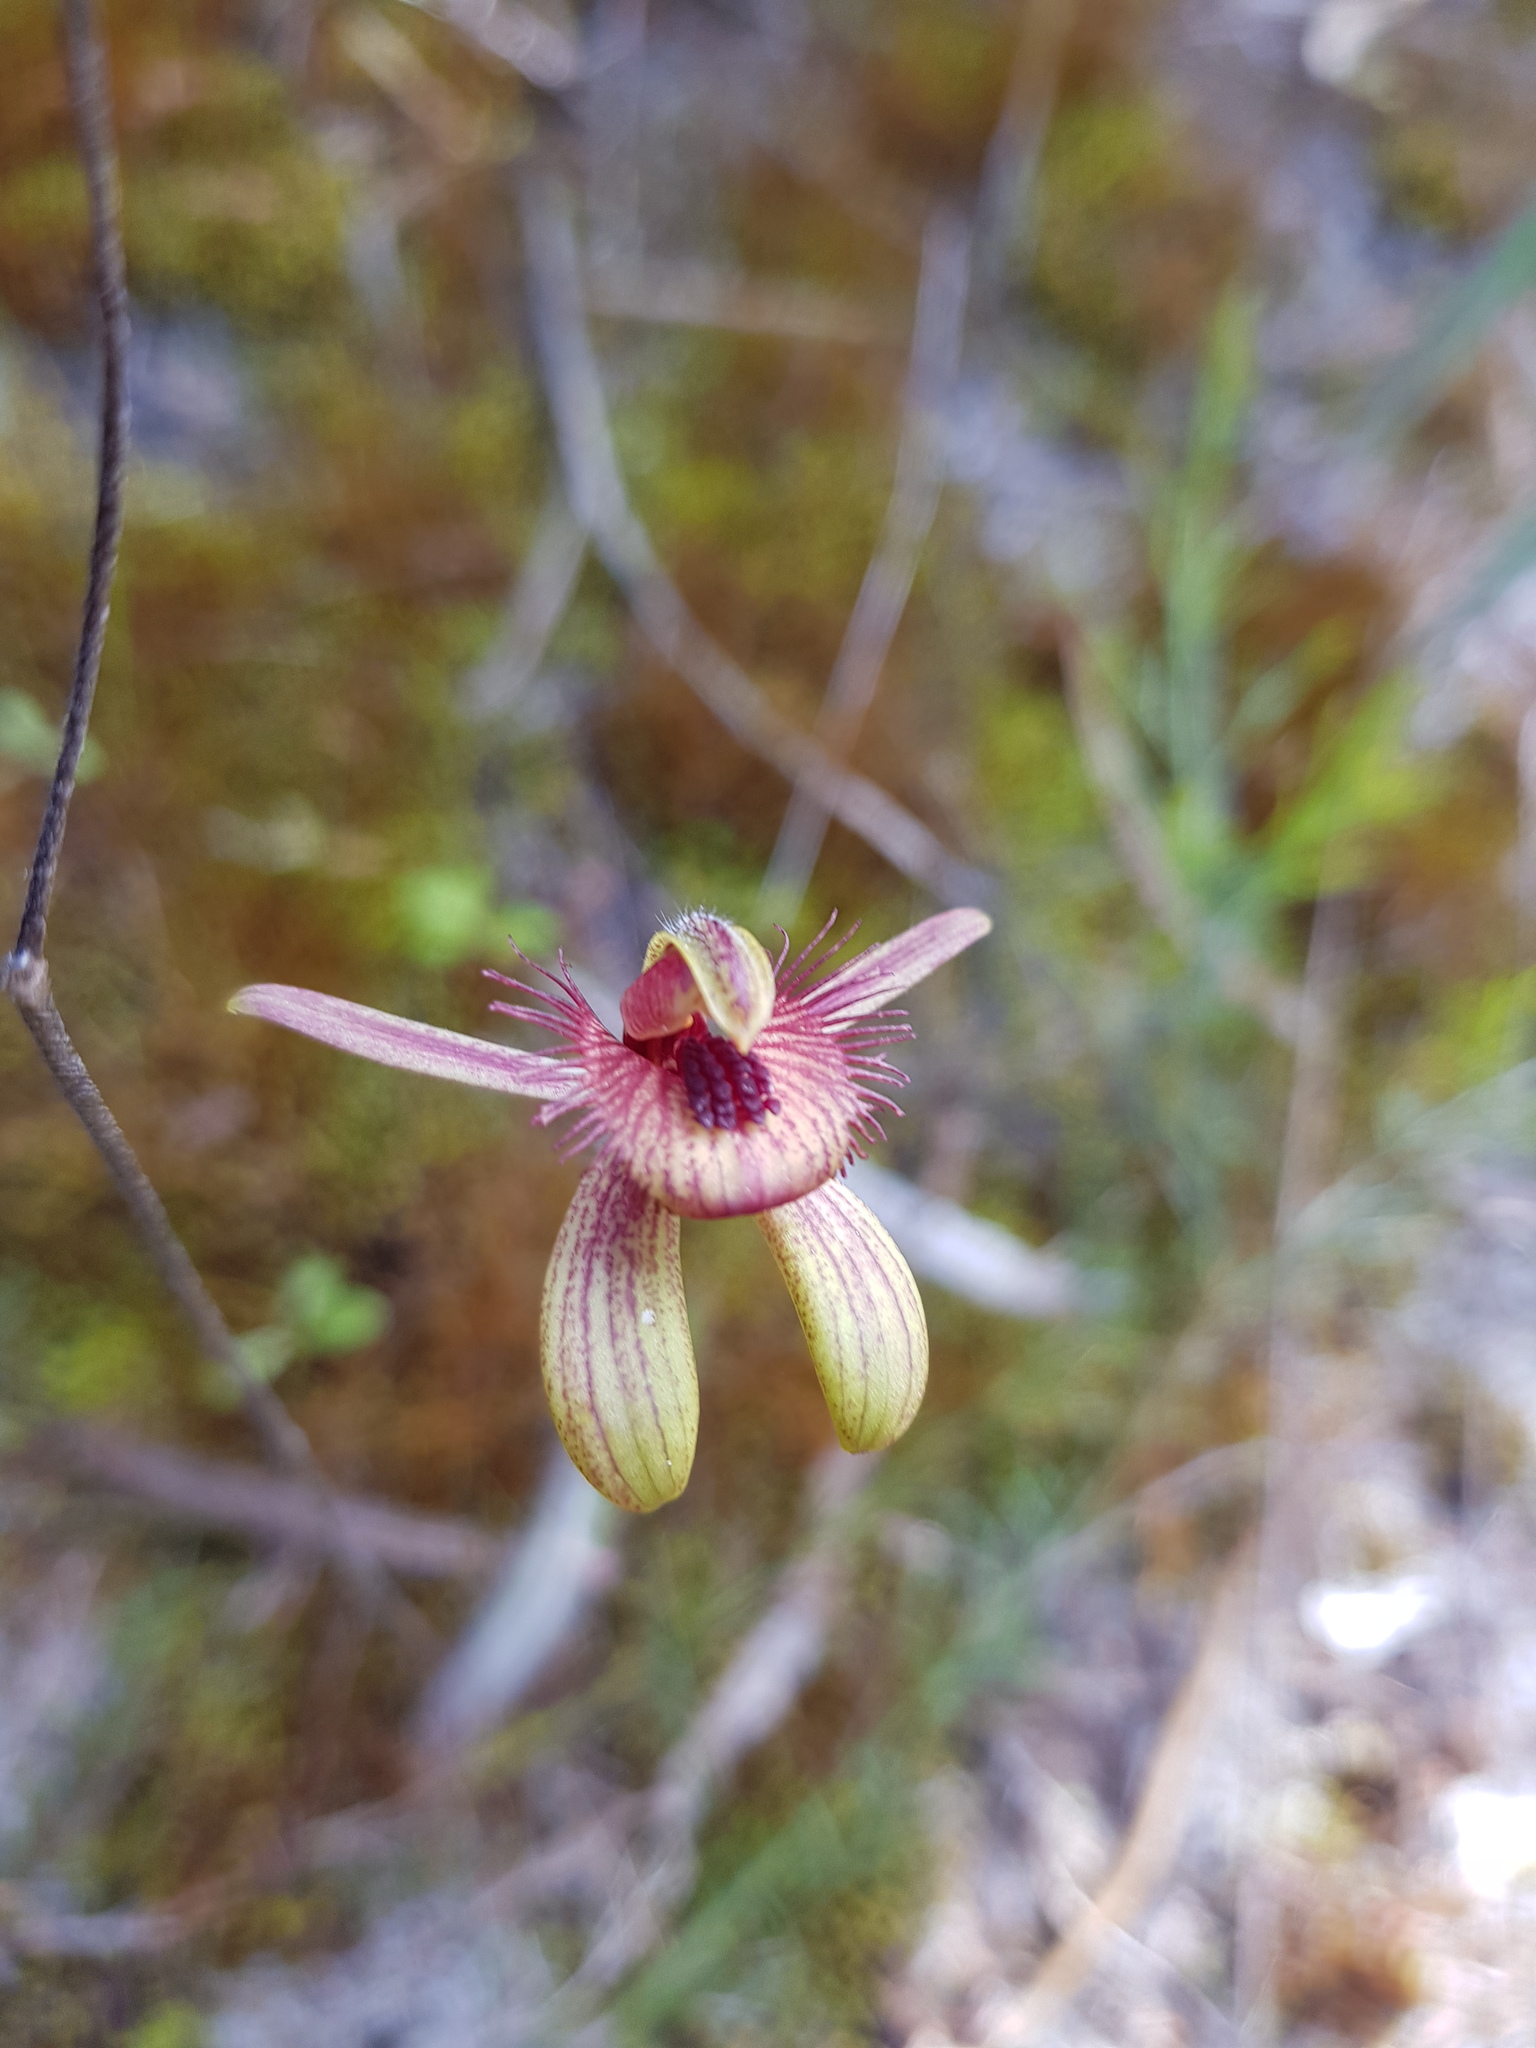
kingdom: Plantae
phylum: Tracheophyta
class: Liliopsida
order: Asparagales
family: Orchidaceae
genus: Caladenia
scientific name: Caladenia discoidea
